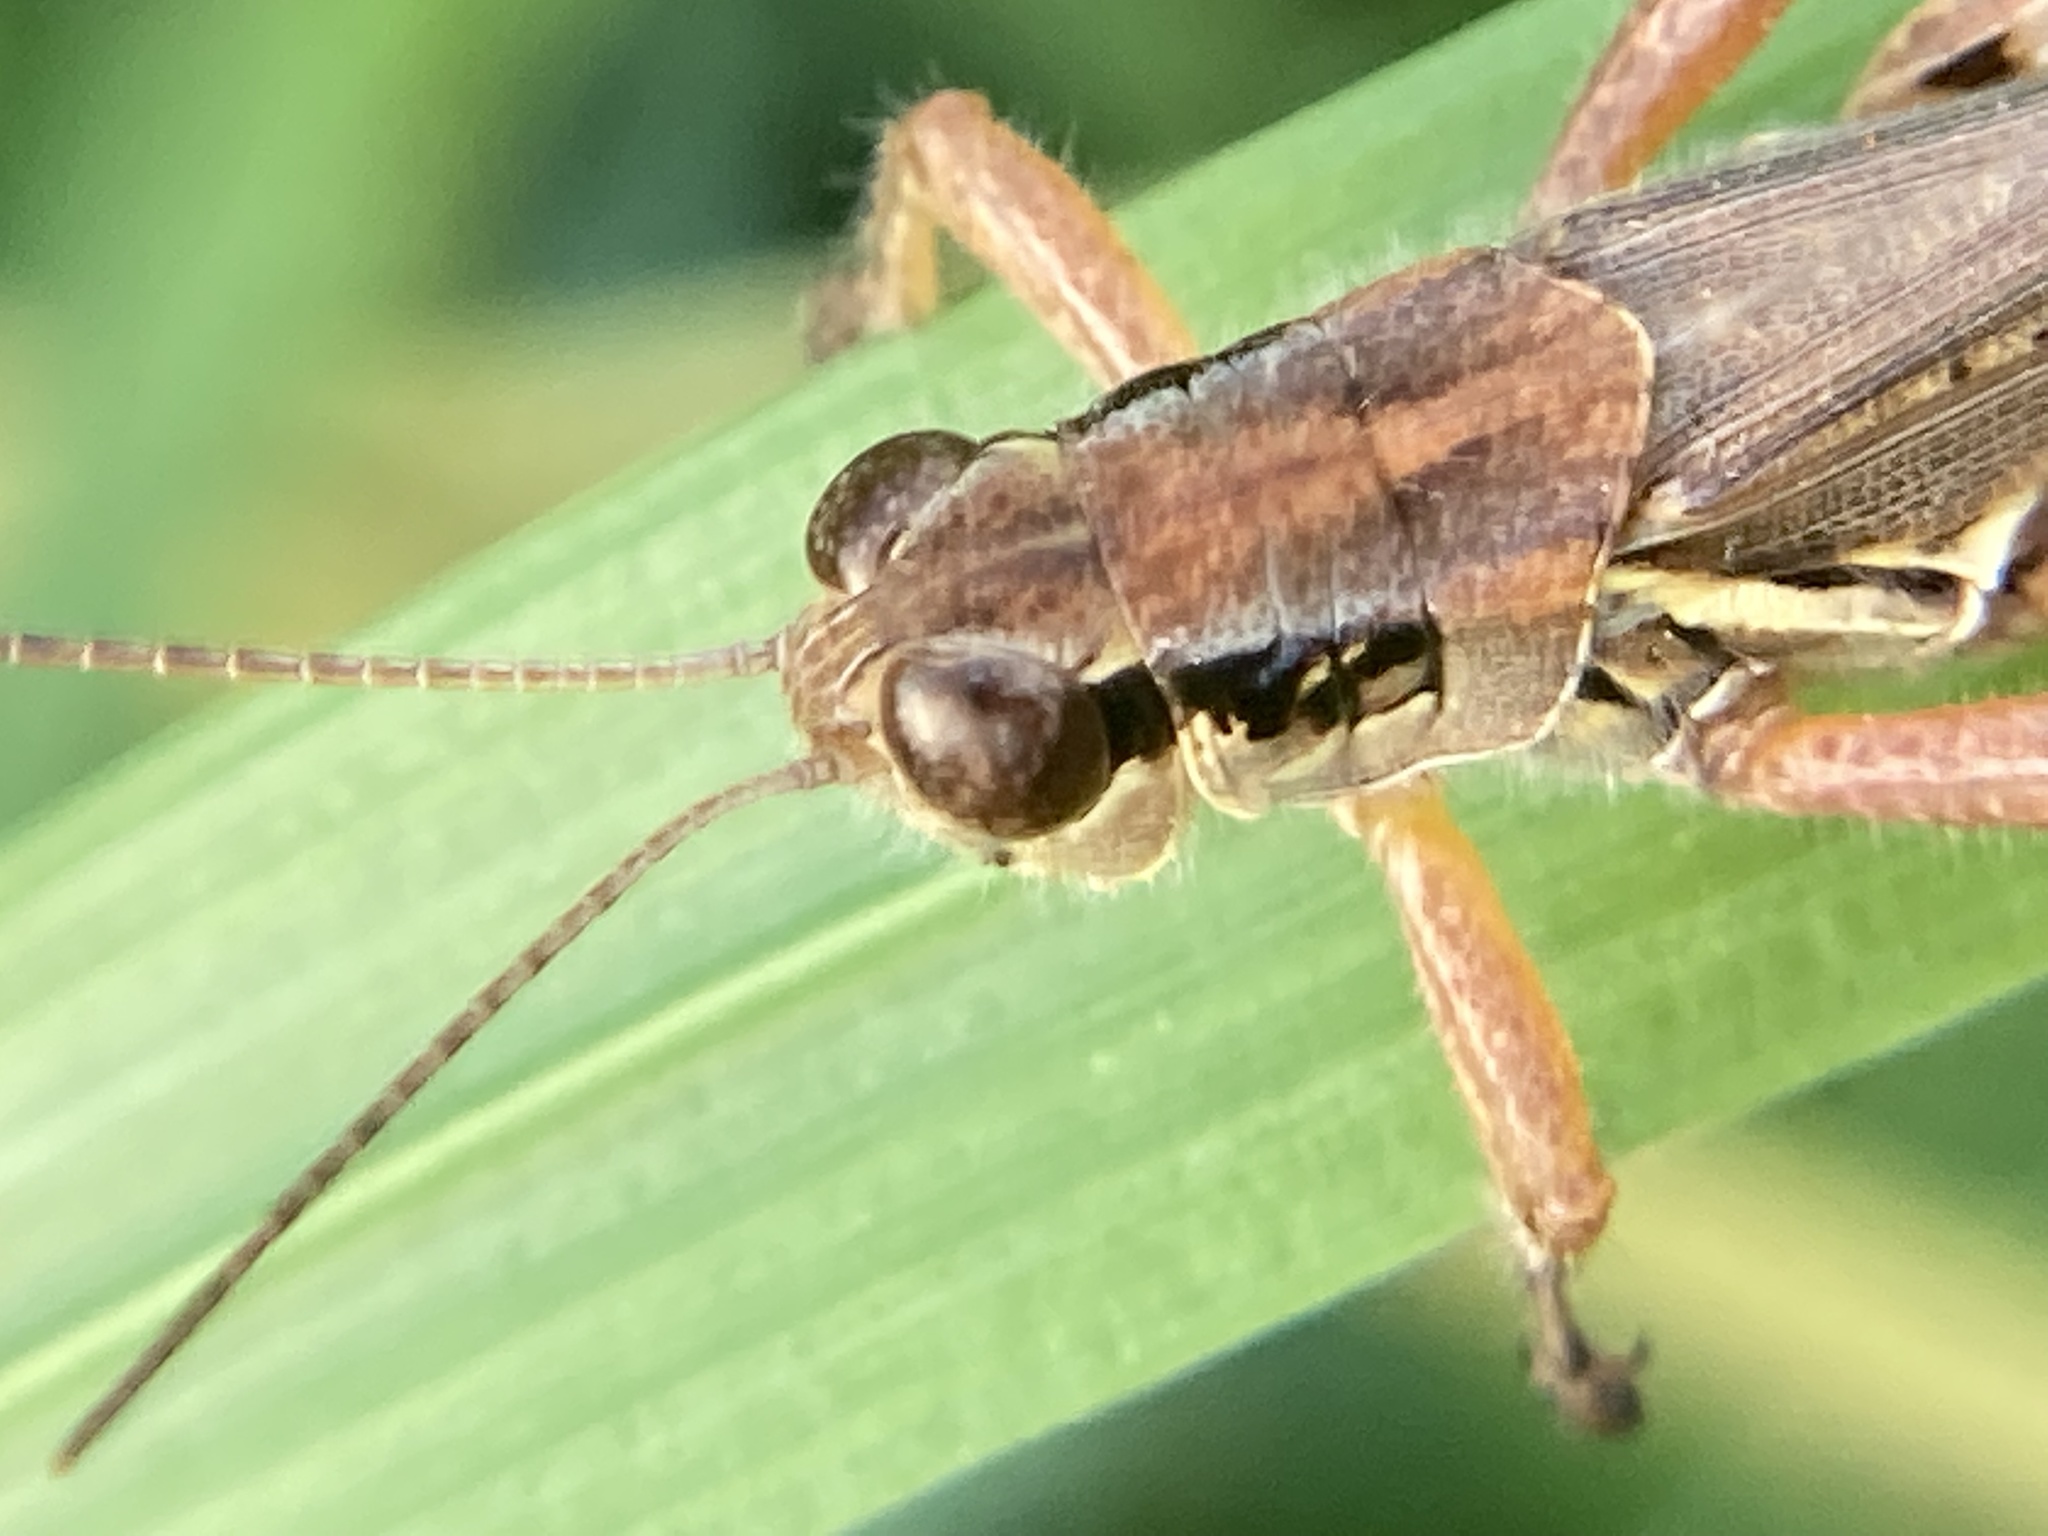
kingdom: Animalia
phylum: Arthropoda
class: Insecta
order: Orthoptera
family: Acrididae
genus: Melanoplus
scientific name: Melanoplus femurrubrum
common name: Red-legged grasshopper
